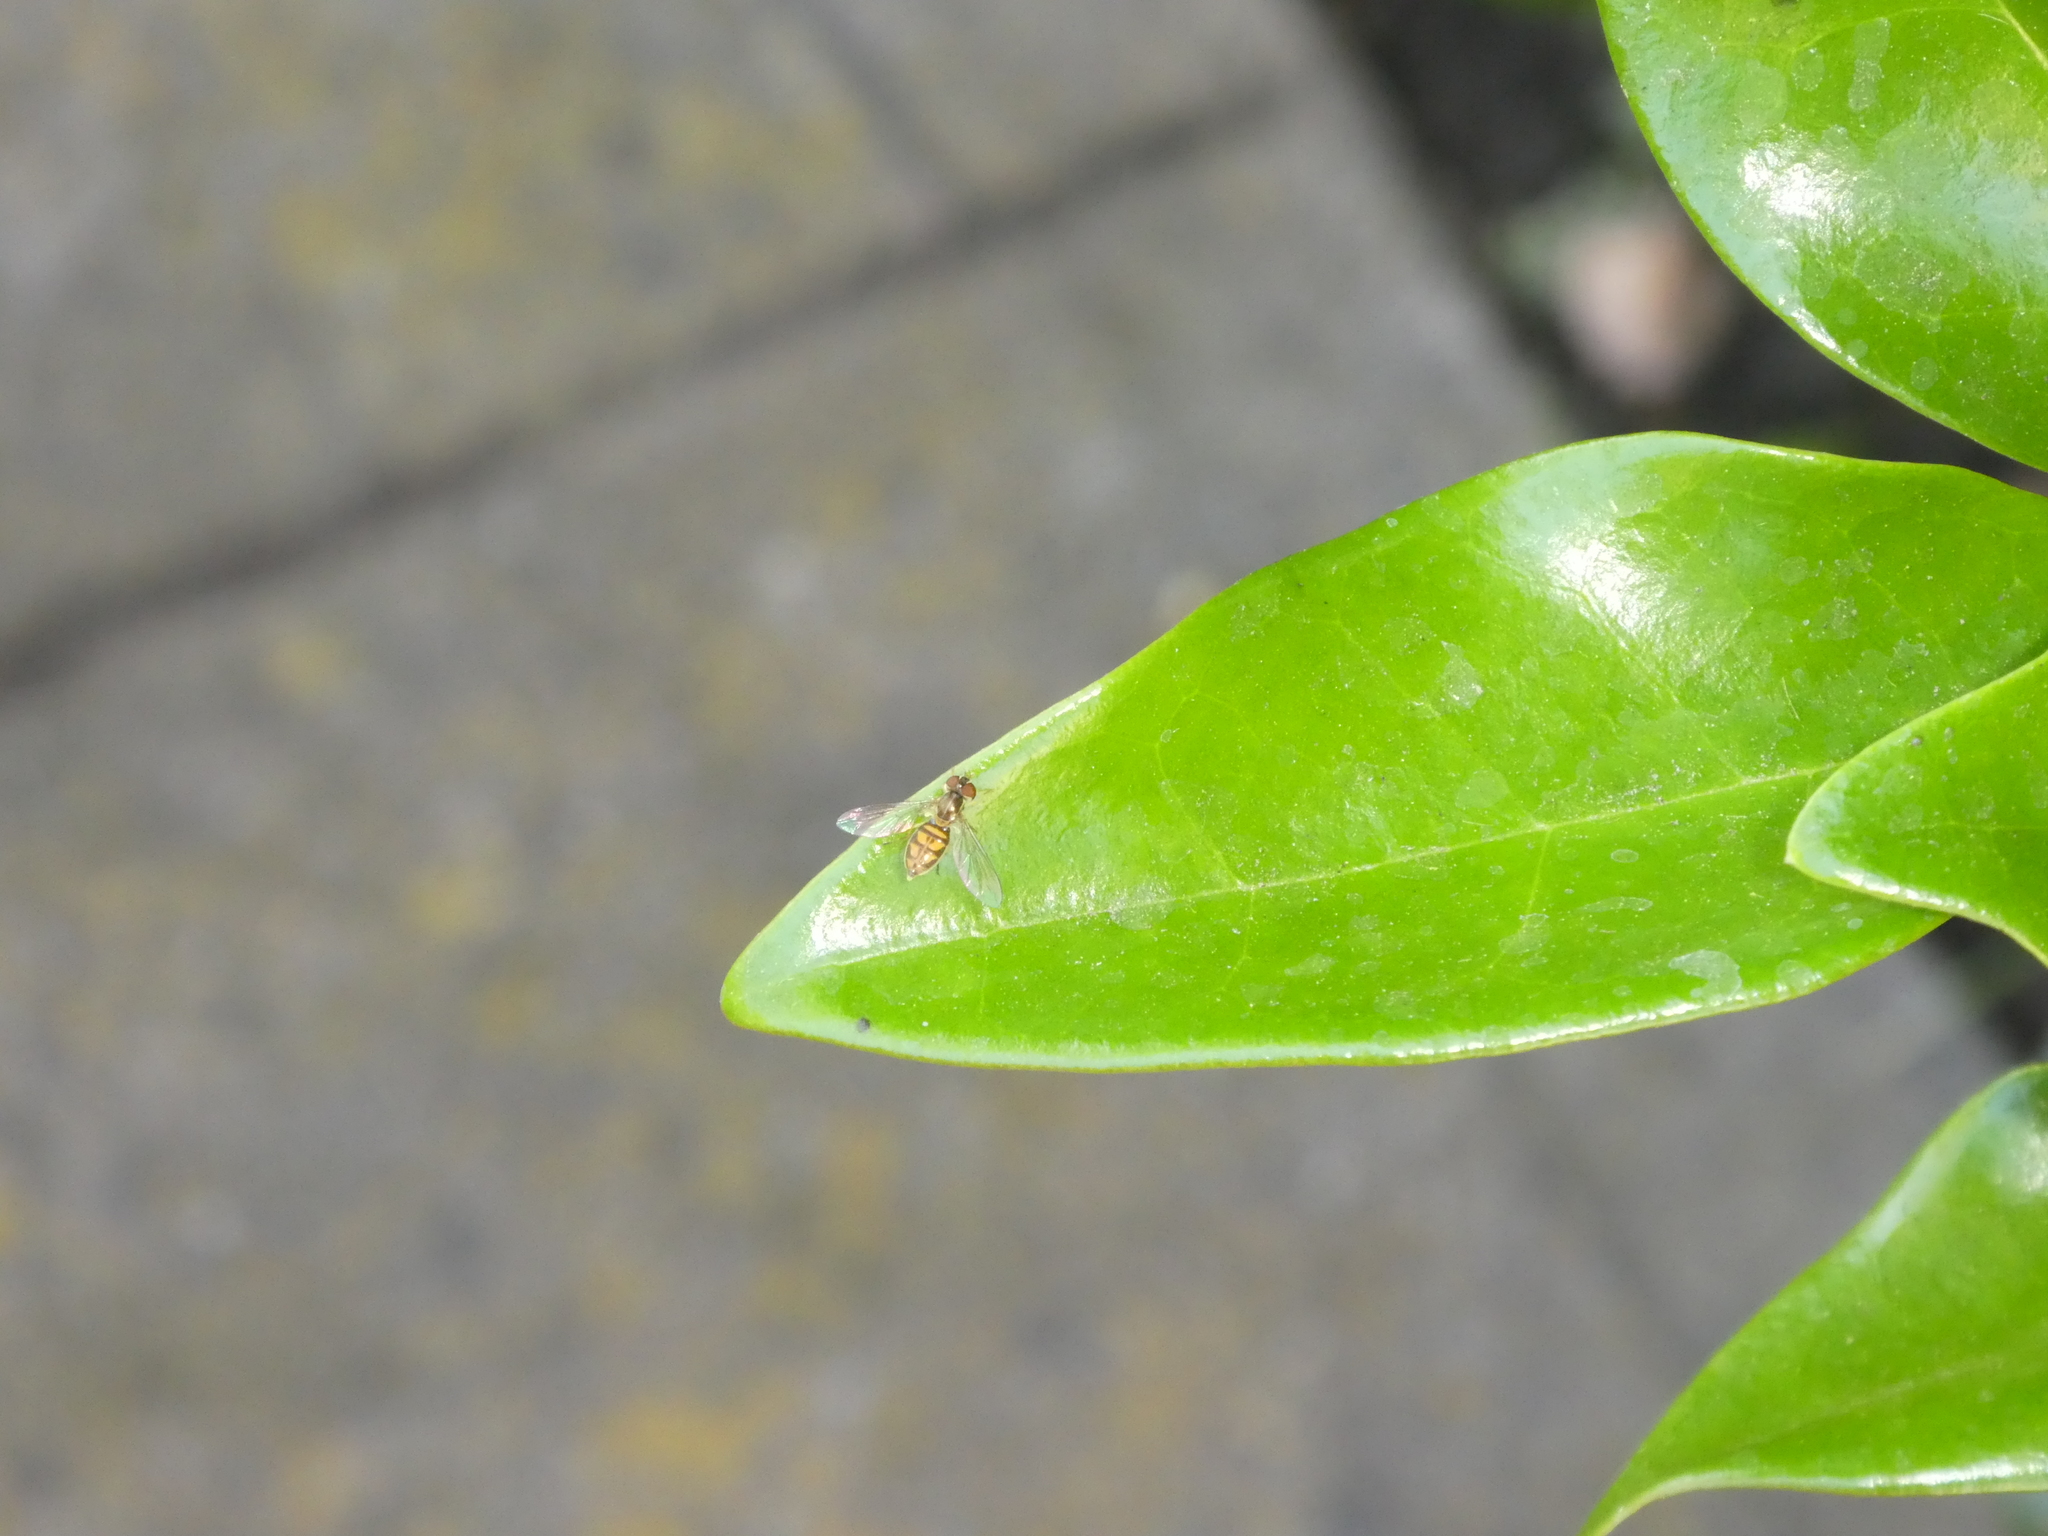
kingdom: Animalia
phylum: Arthropoda
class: Insecta
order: Diptera
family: Syrphidae
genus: Toxomerus
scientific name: Toxomerus marginatus
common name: Syrphid fly
